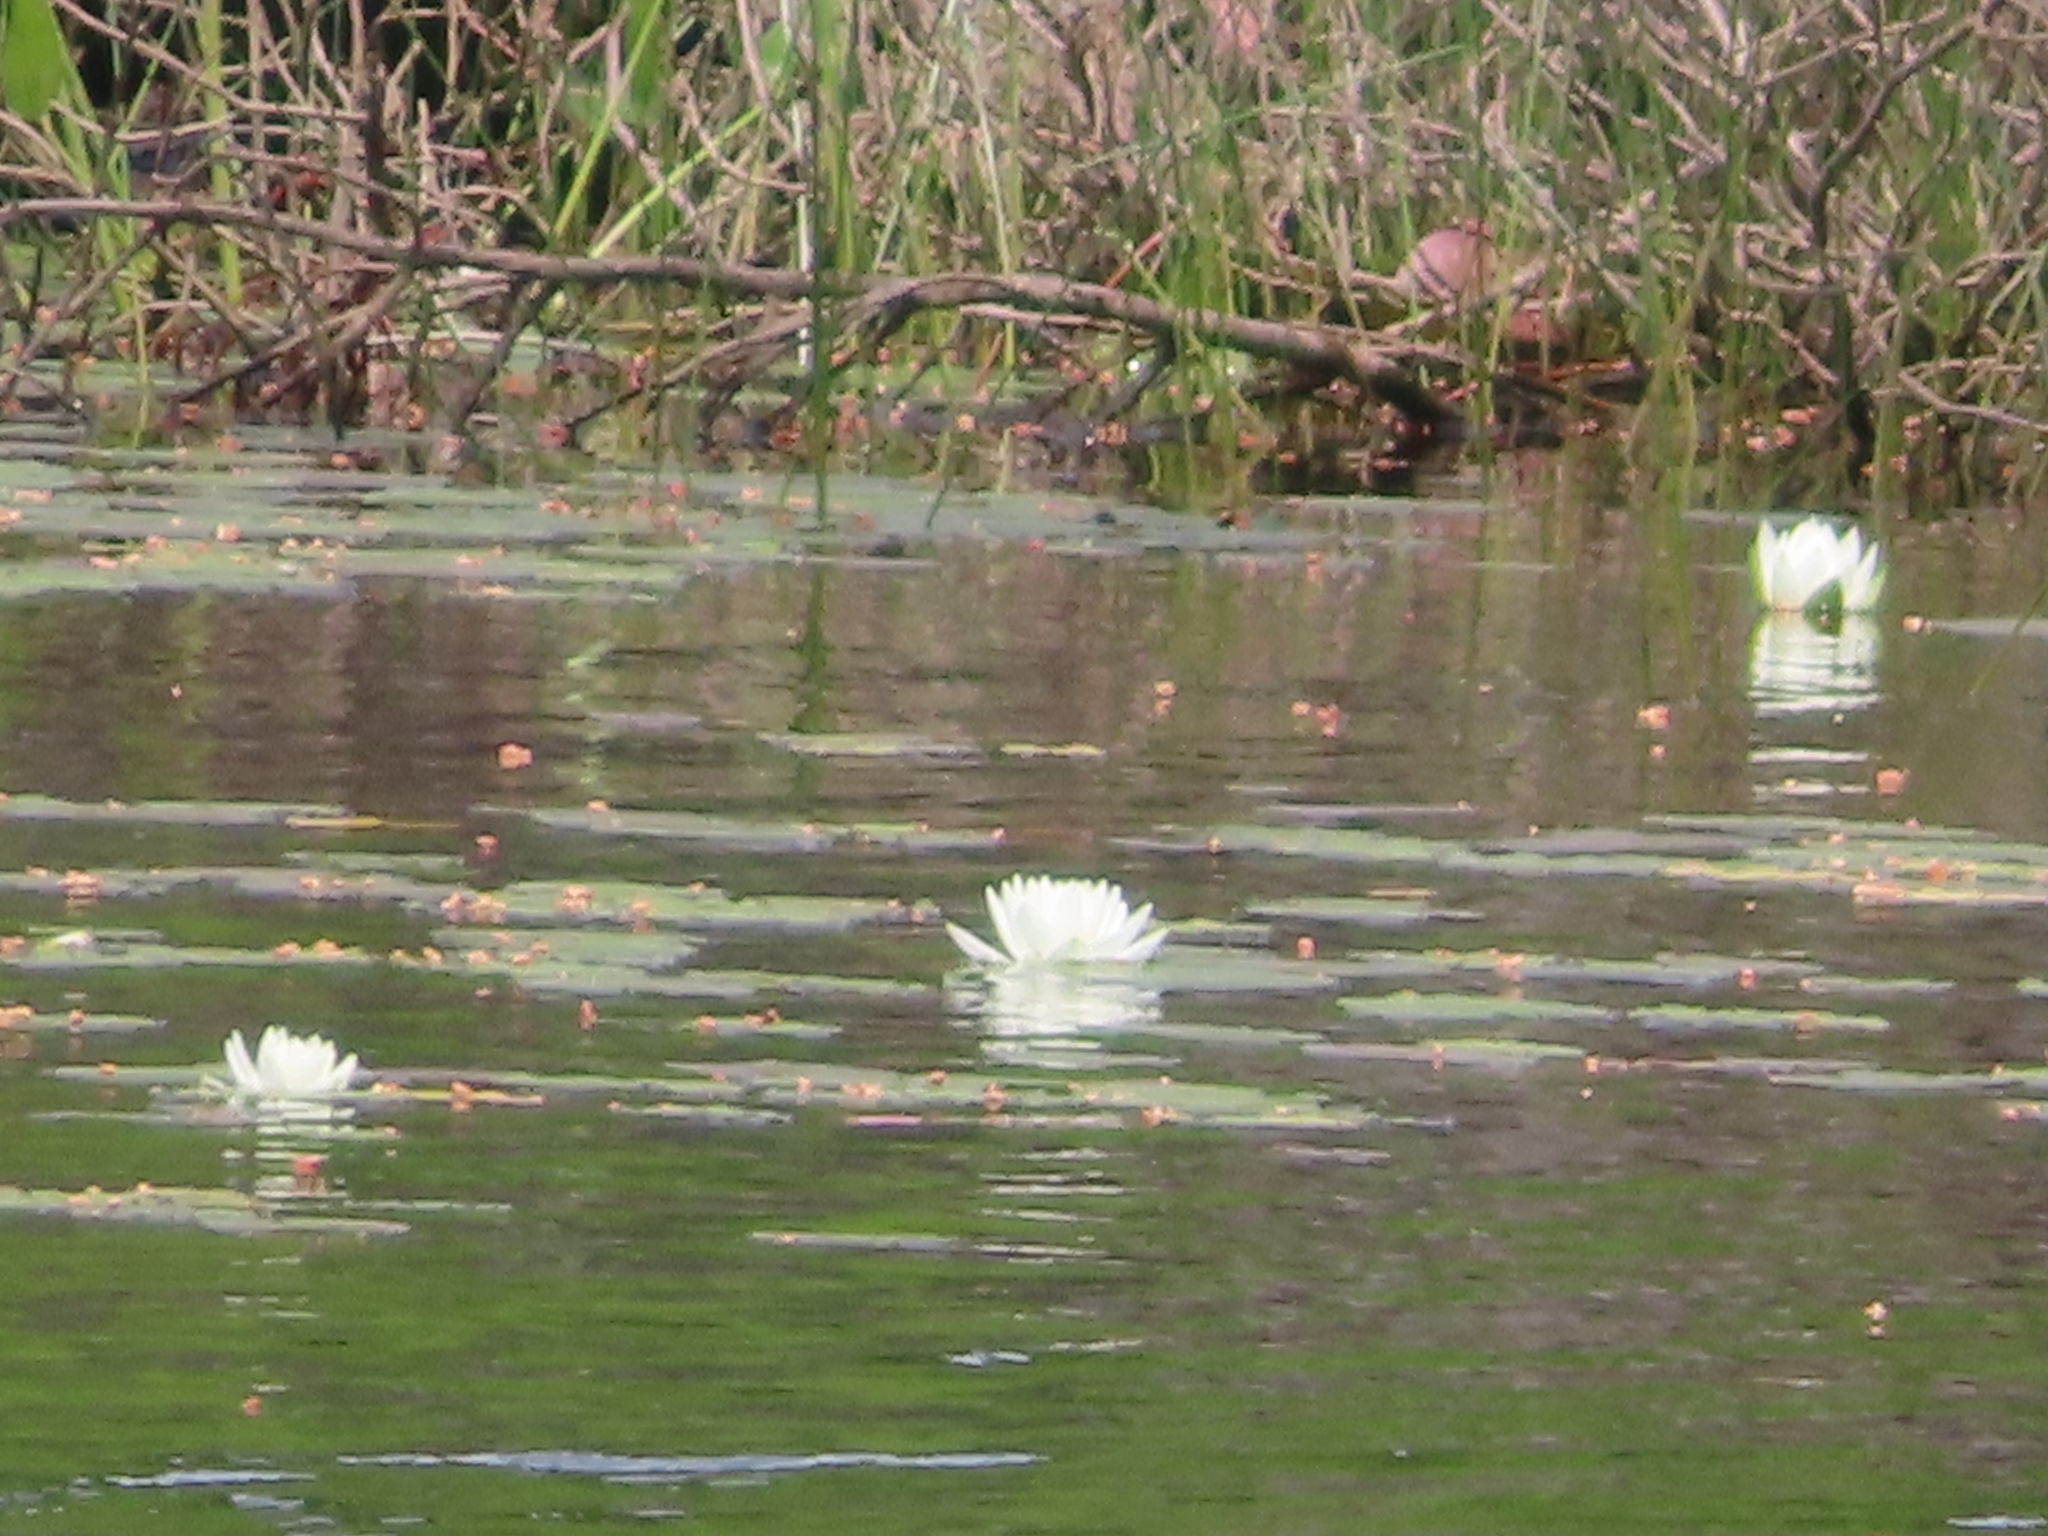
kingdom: Plantae
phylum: Tracheophyta
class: Magnoliopsida
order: Nymphaeales
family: Nymphaeaceae
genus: Nymphaea
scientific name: Nymphaea odorata
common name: Fragrant water-lily
